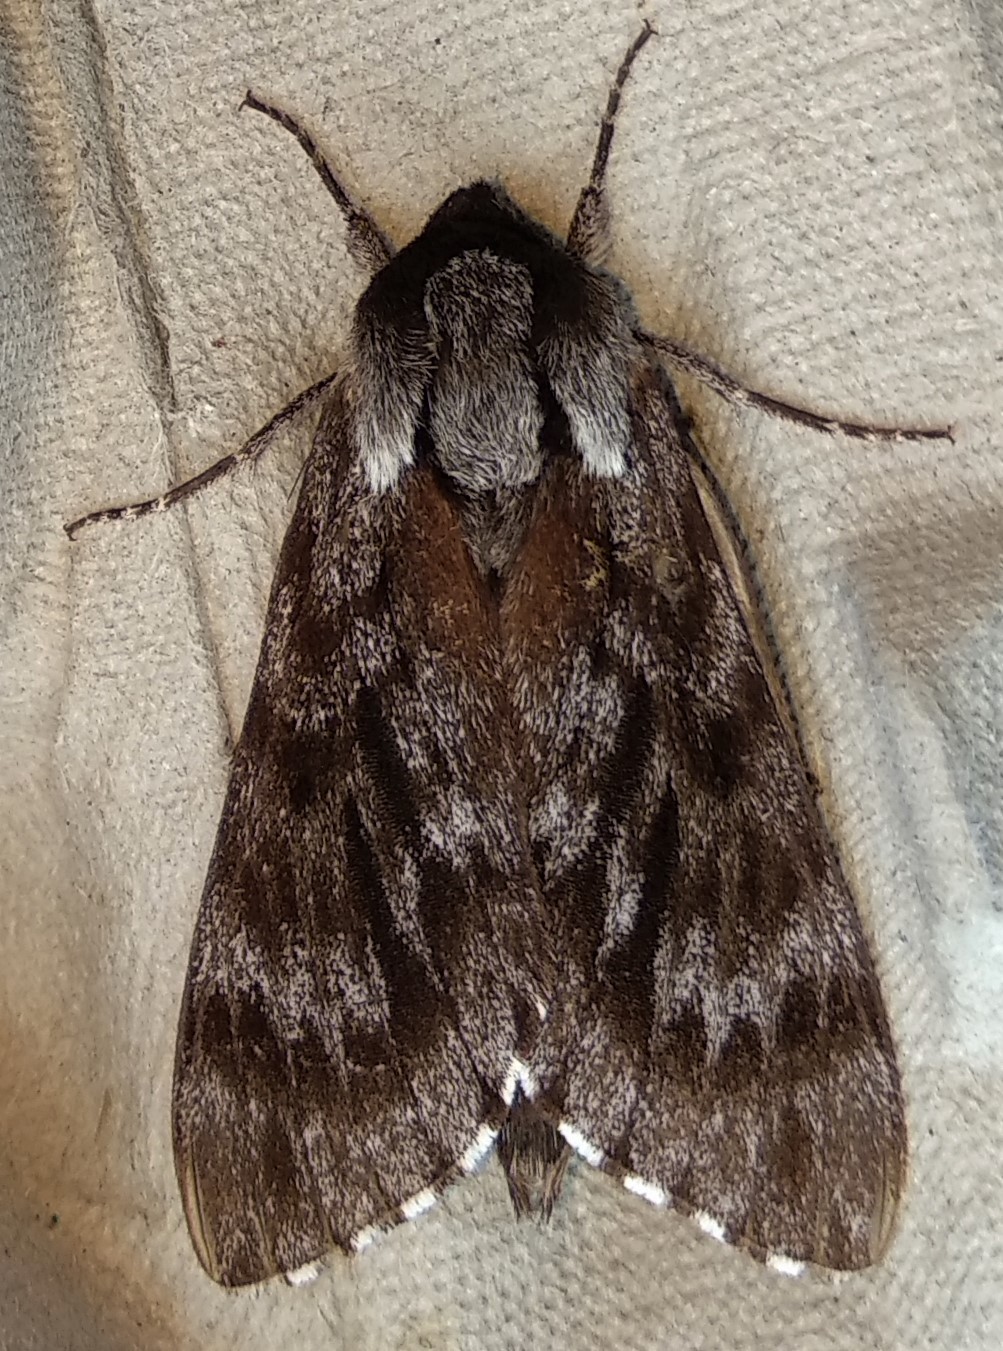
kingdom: Animalia
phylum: Arthropoda
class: Insecta
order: Lepidoptera
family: Sphingidae
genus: Lapara
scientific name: Lapara bombycoides
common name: Northern pine sphinx
